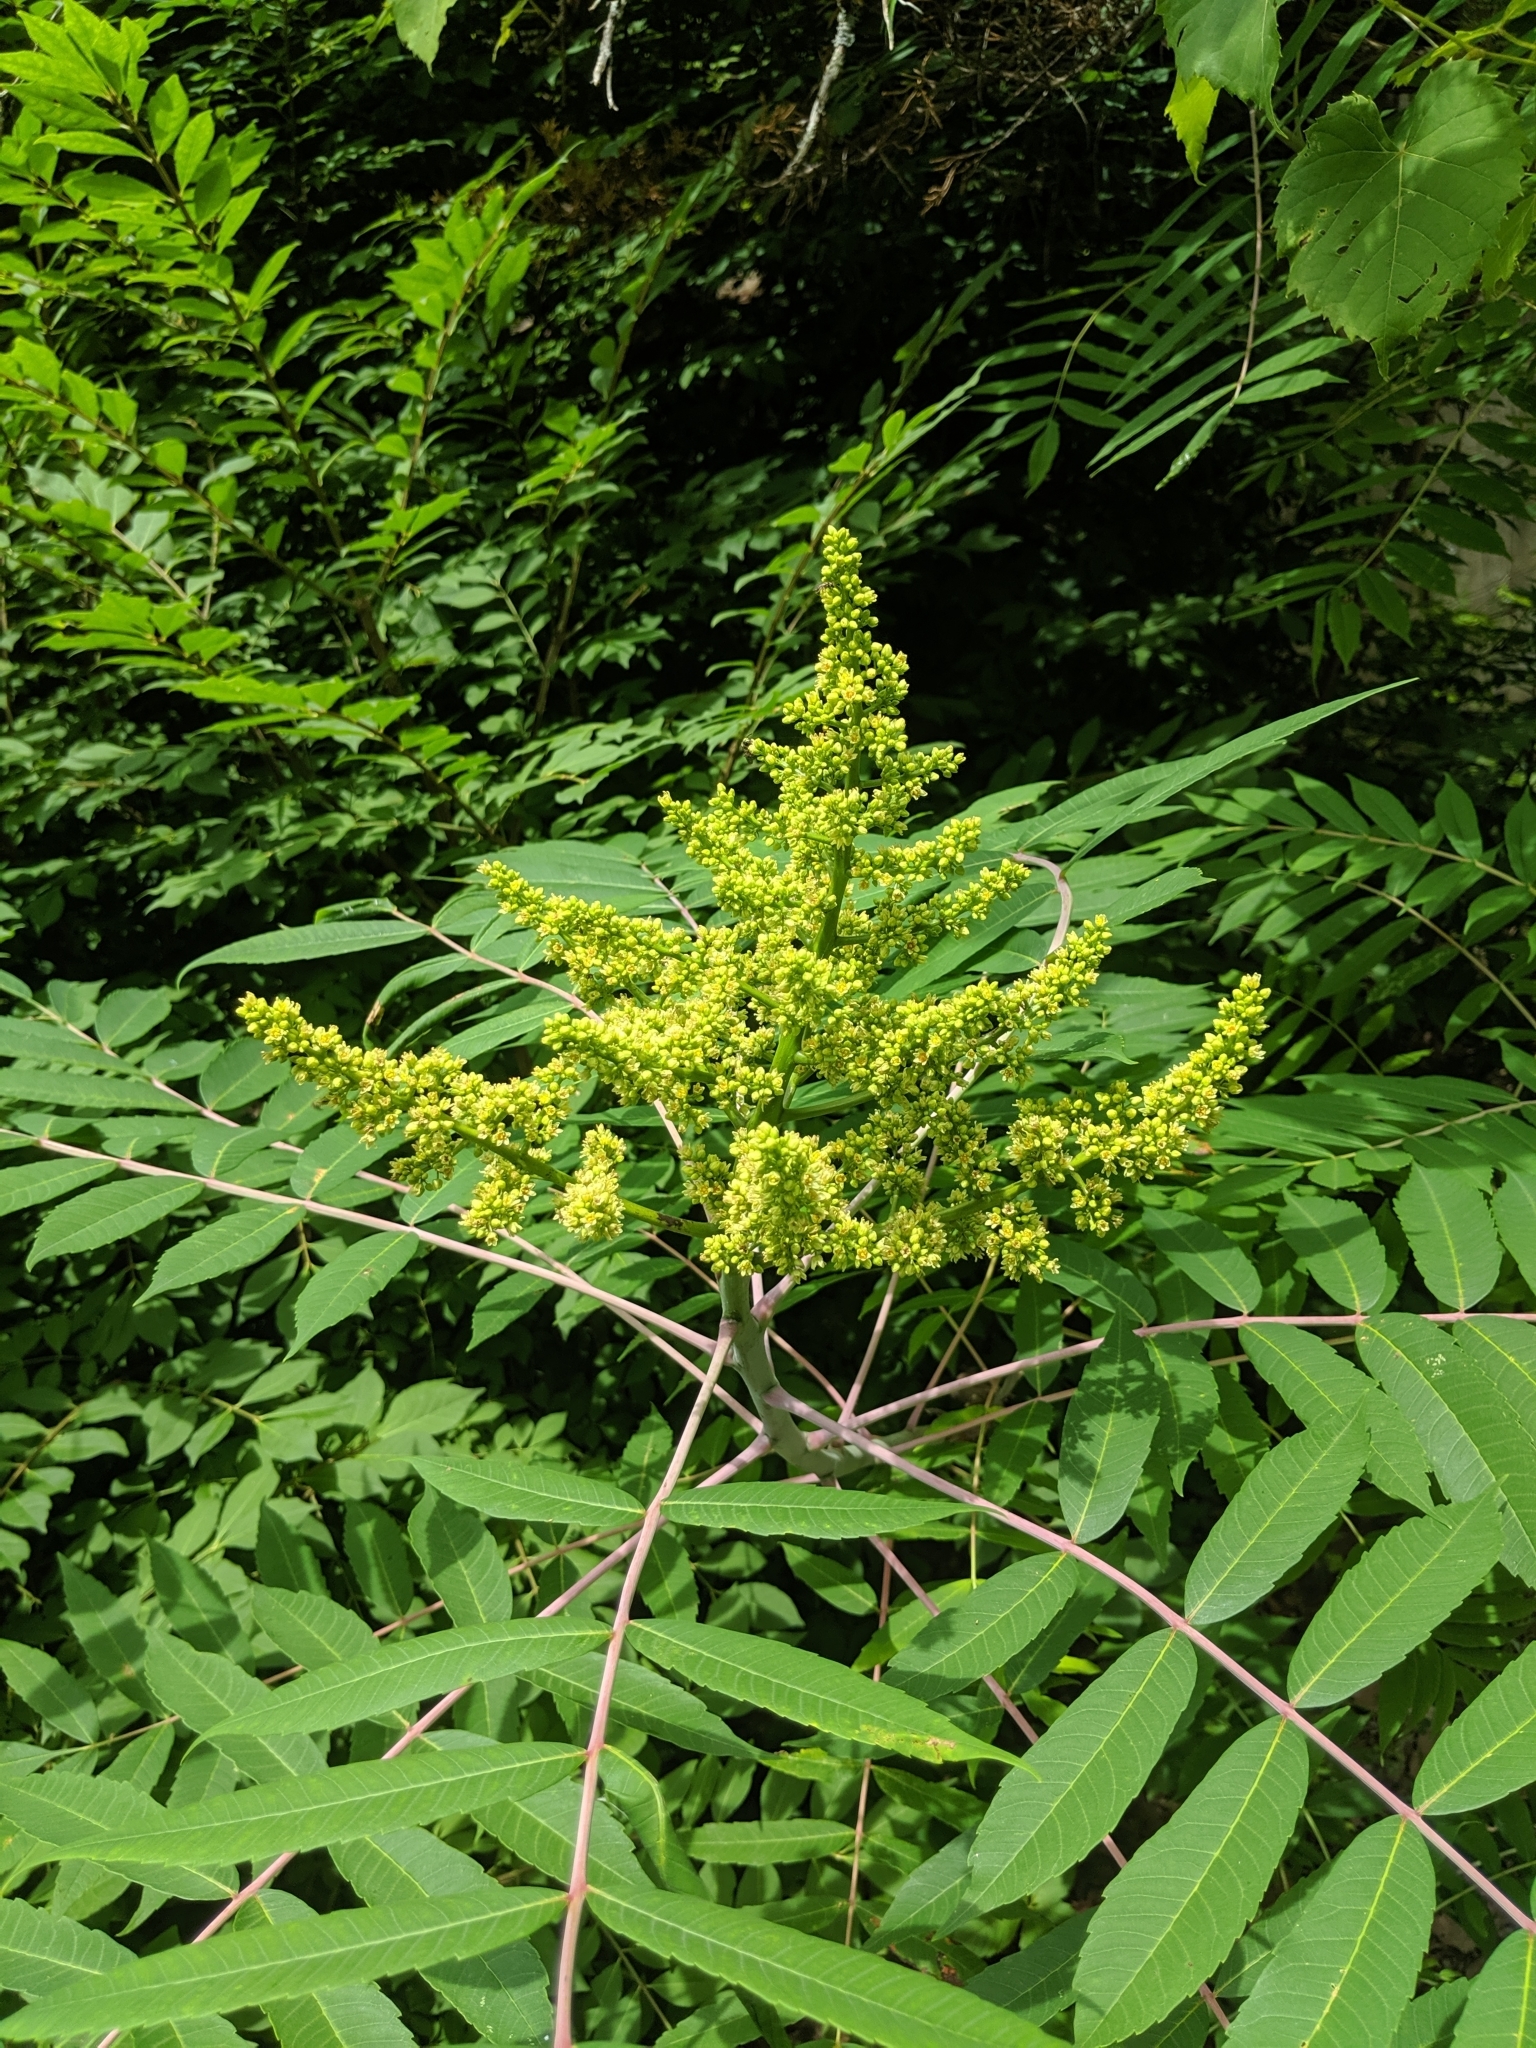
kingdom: Plantae
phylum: Tracheophyta
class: Magnoliopsida
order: Sapindales
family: Anacardiaceae
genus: Rhus
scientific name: Rhus glabra
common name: Scarlet sumac
